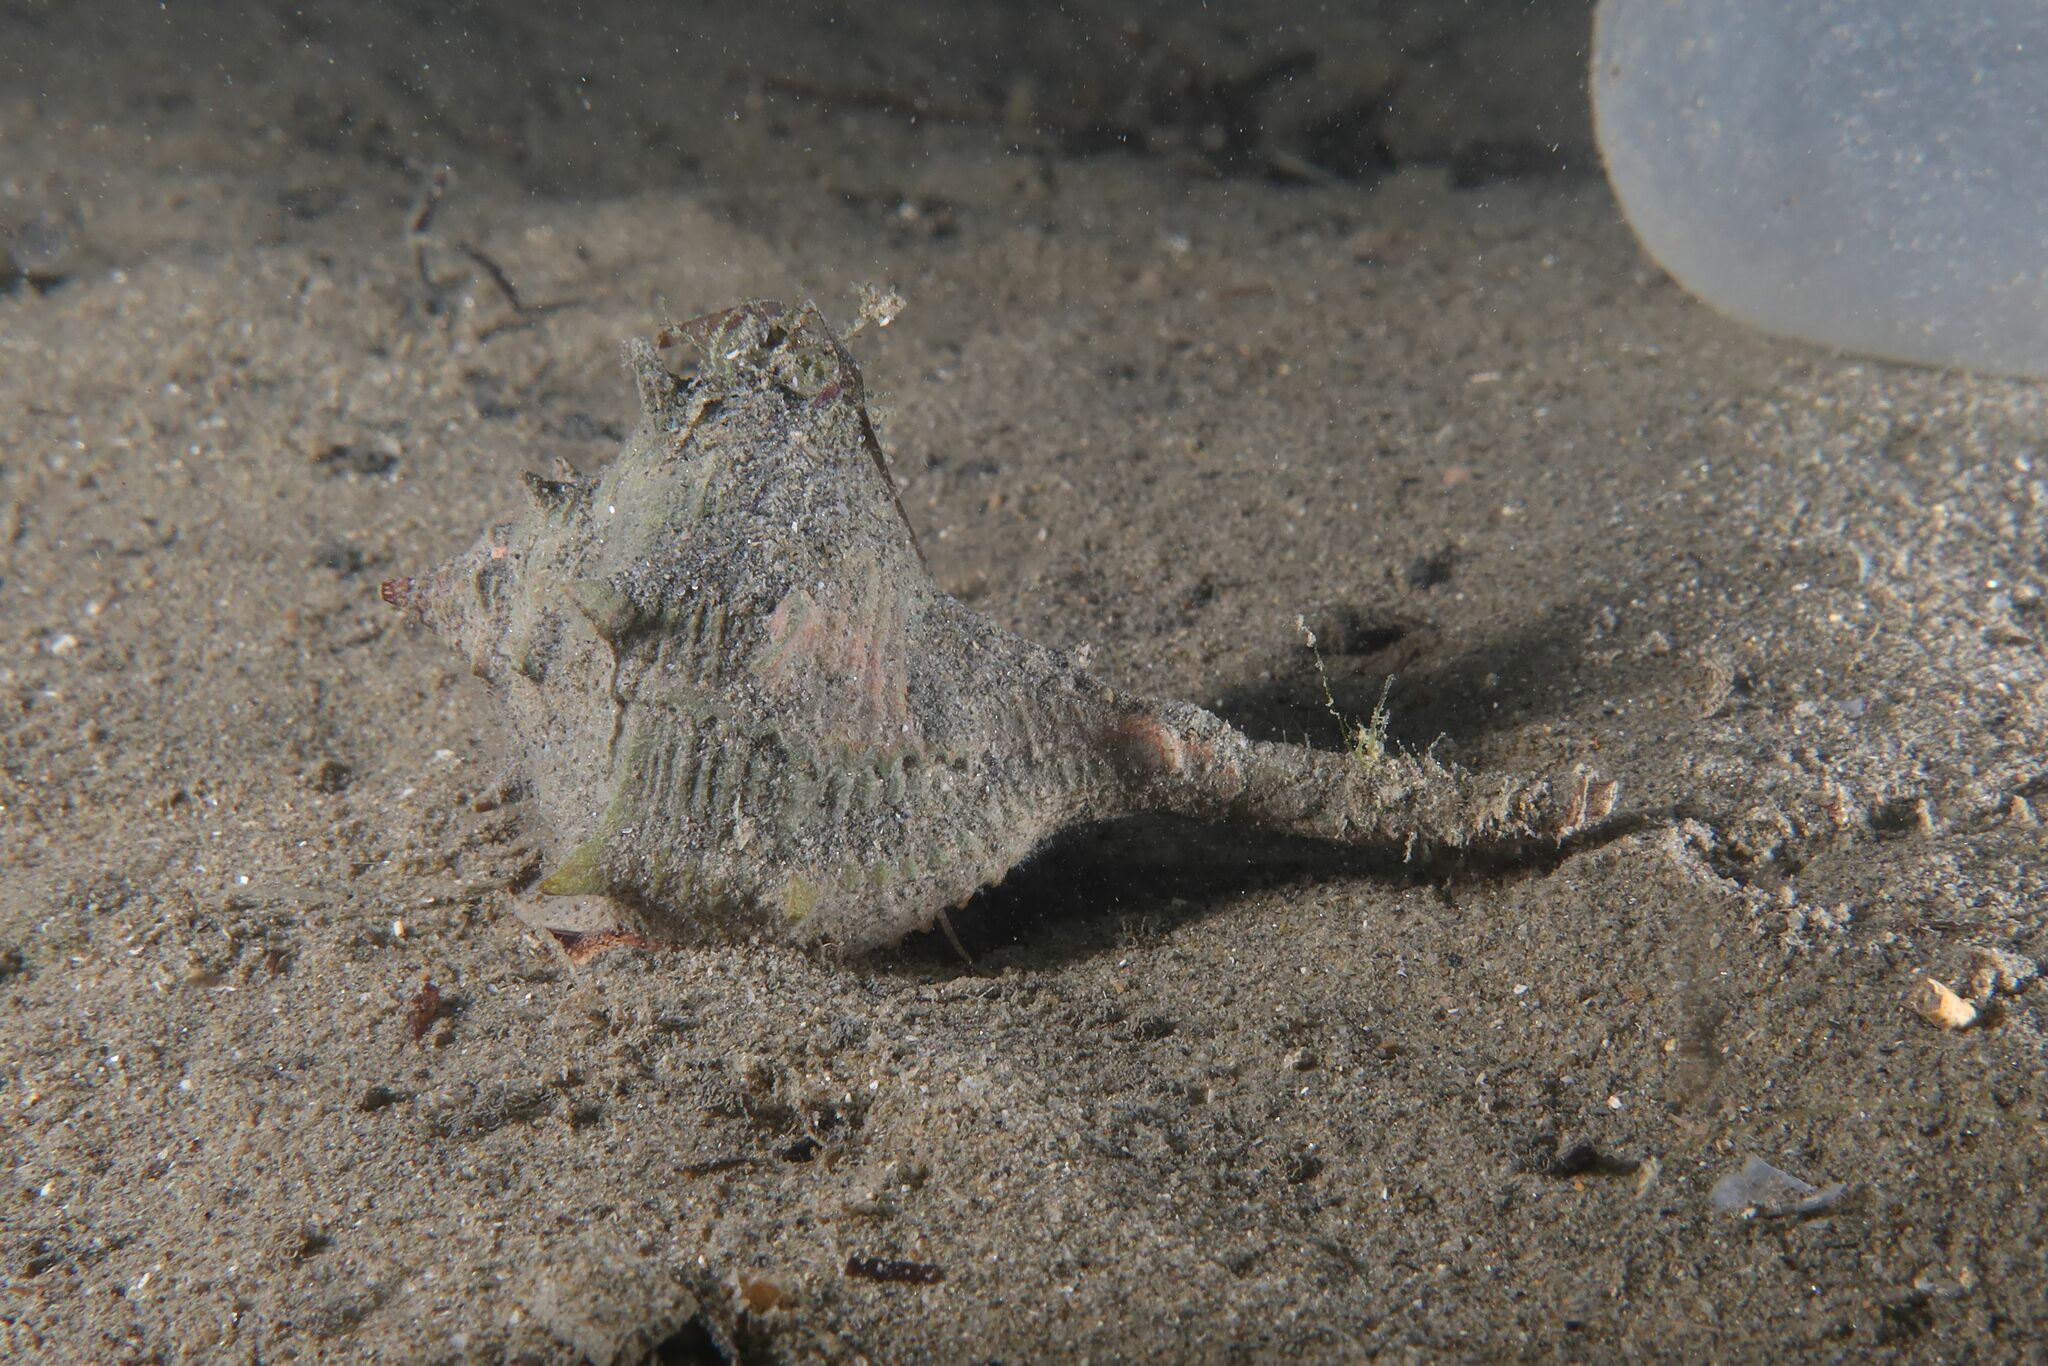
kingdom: Animalia
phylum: Mollusca
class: Gastropoda
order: Neogastropoda
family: Muricidae
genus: Bolinus
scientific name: Bolinus brandaris
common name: Dye murex
